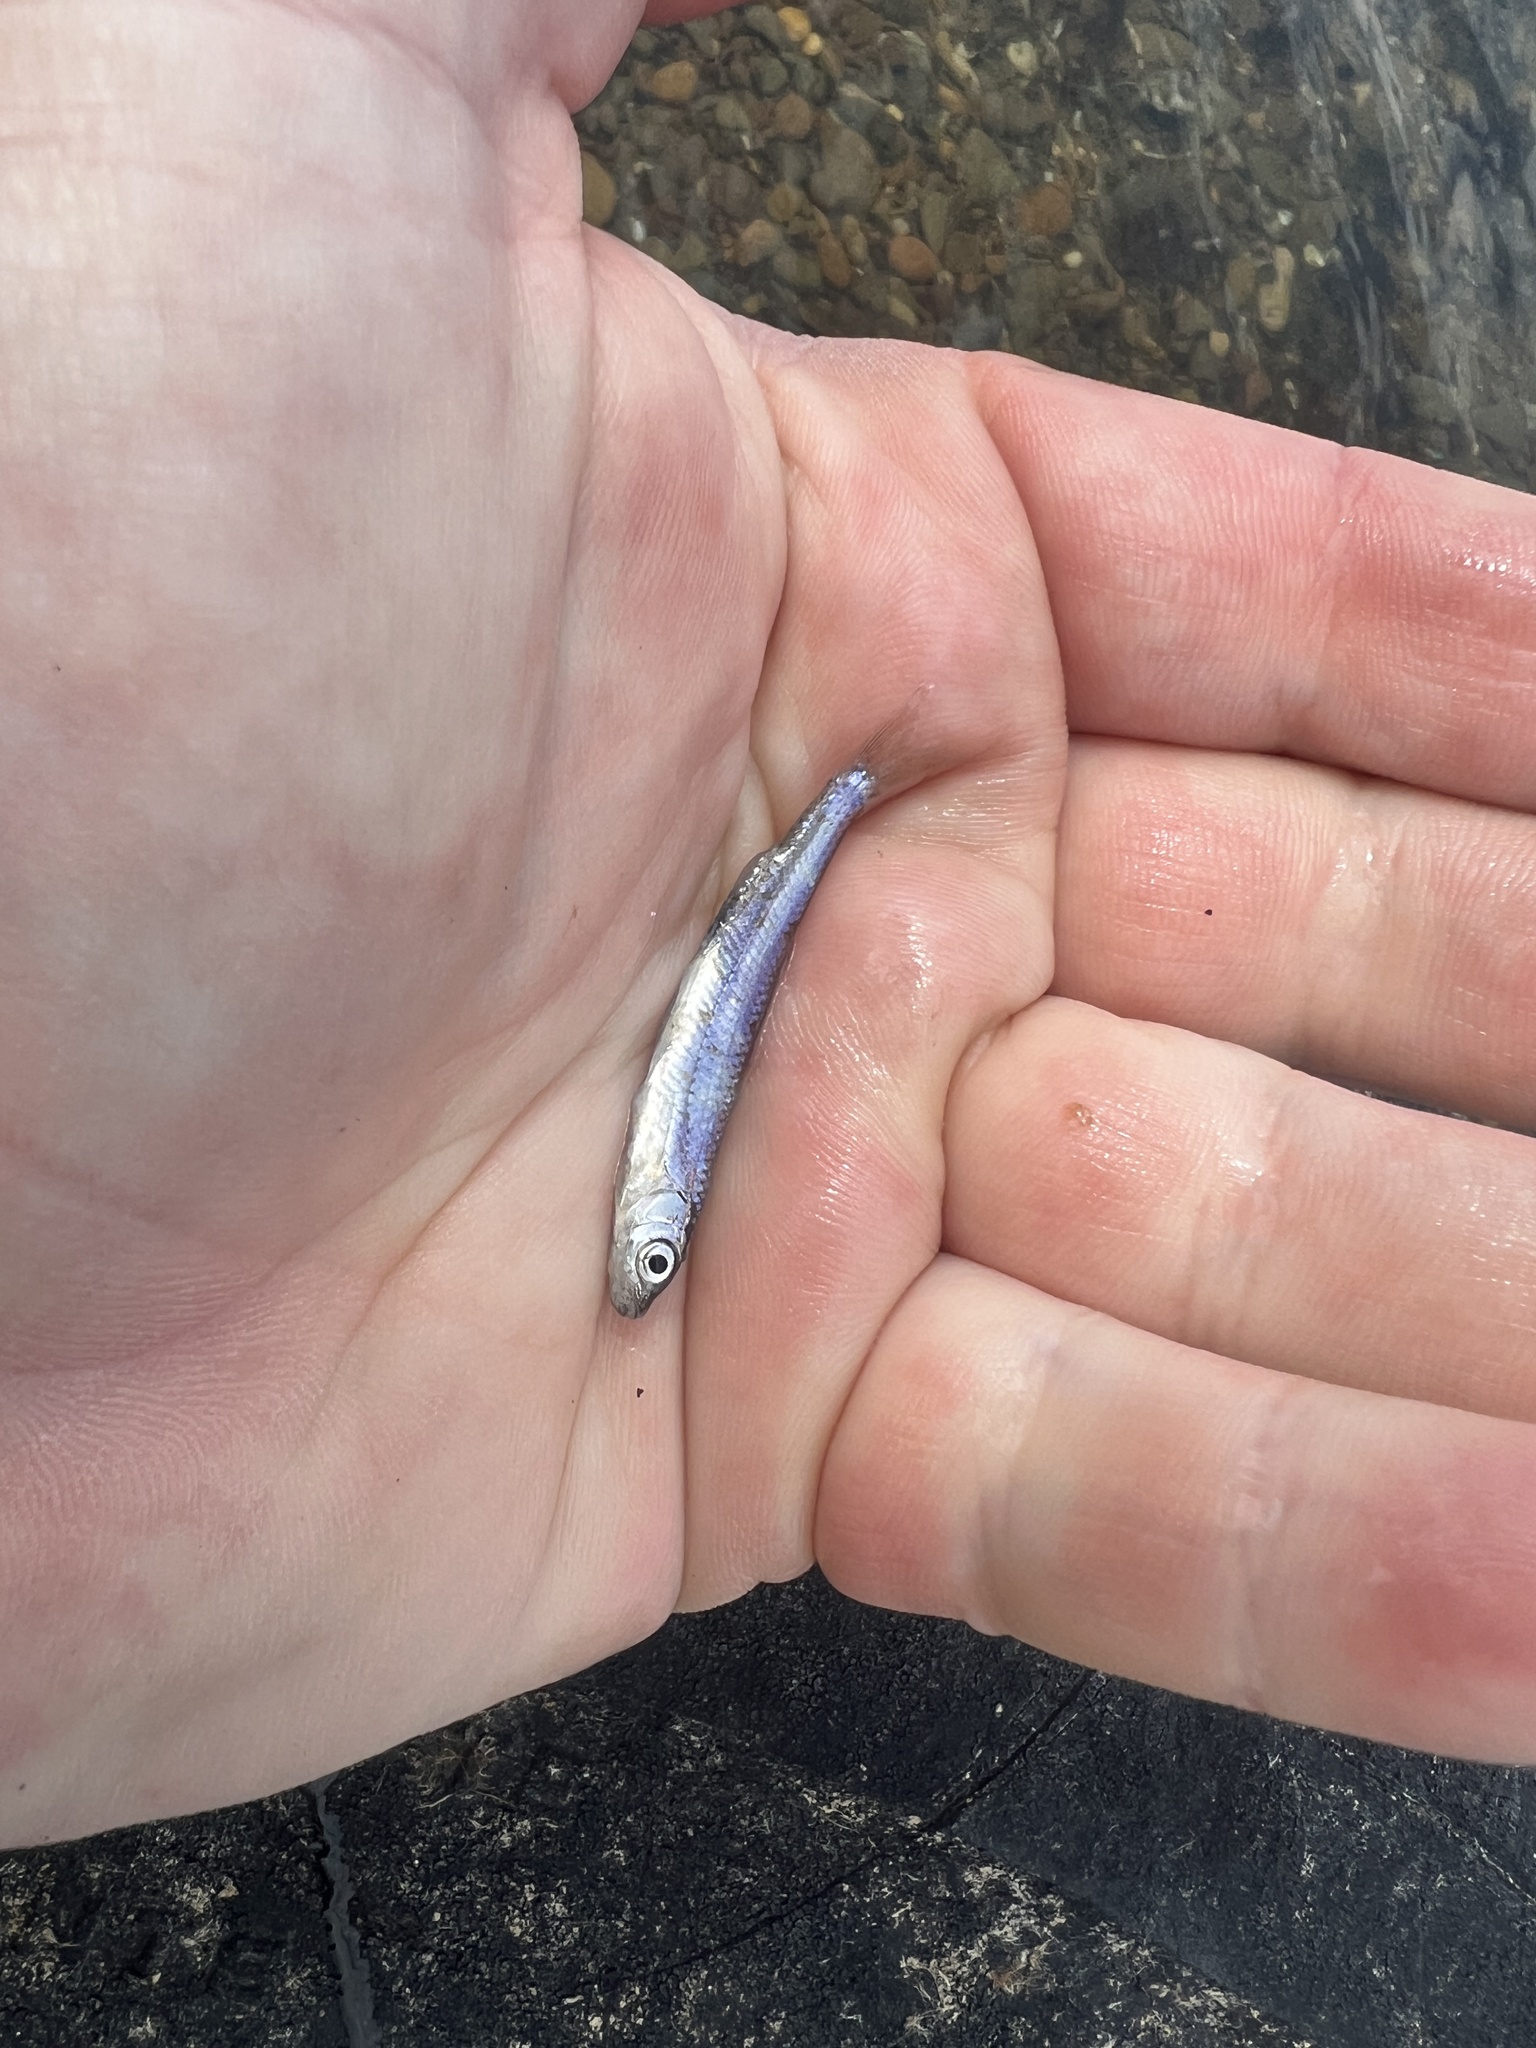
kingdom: Animalia
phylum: Chordata
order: Cypriniformes
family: Cyprinidae
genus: Notropis
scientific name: Notropis atherinoides
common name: Emerald shiner
